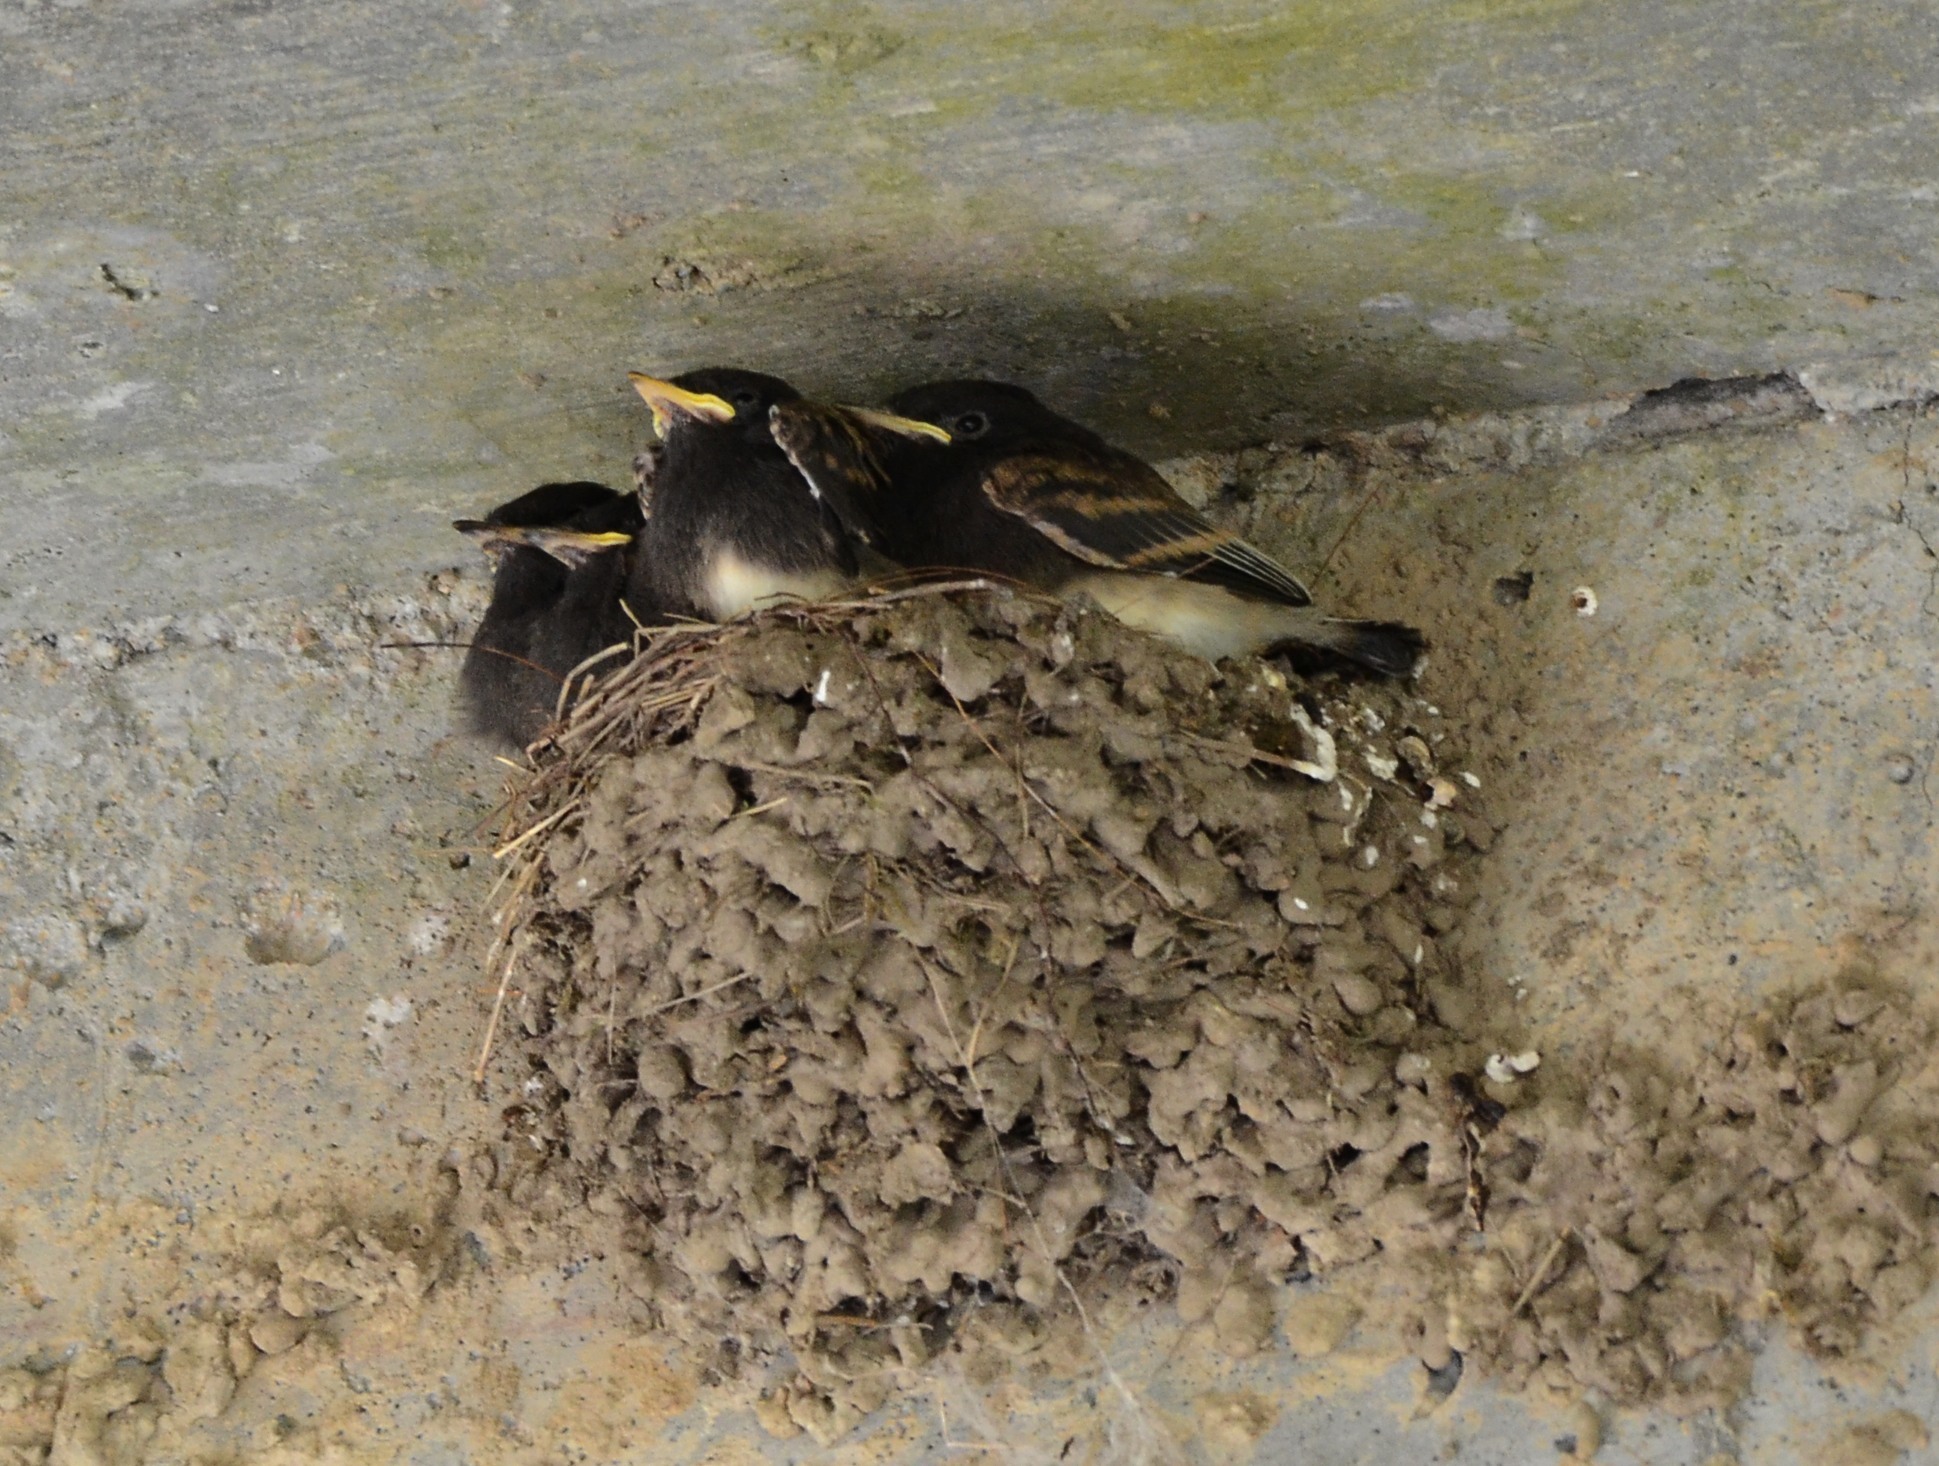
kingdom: Animalia
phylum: Chordata
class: Aves
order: Passeriformes
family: Tyrannidae
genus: Sayornis
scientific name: Sayornis nigricans
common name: Black phoebe
